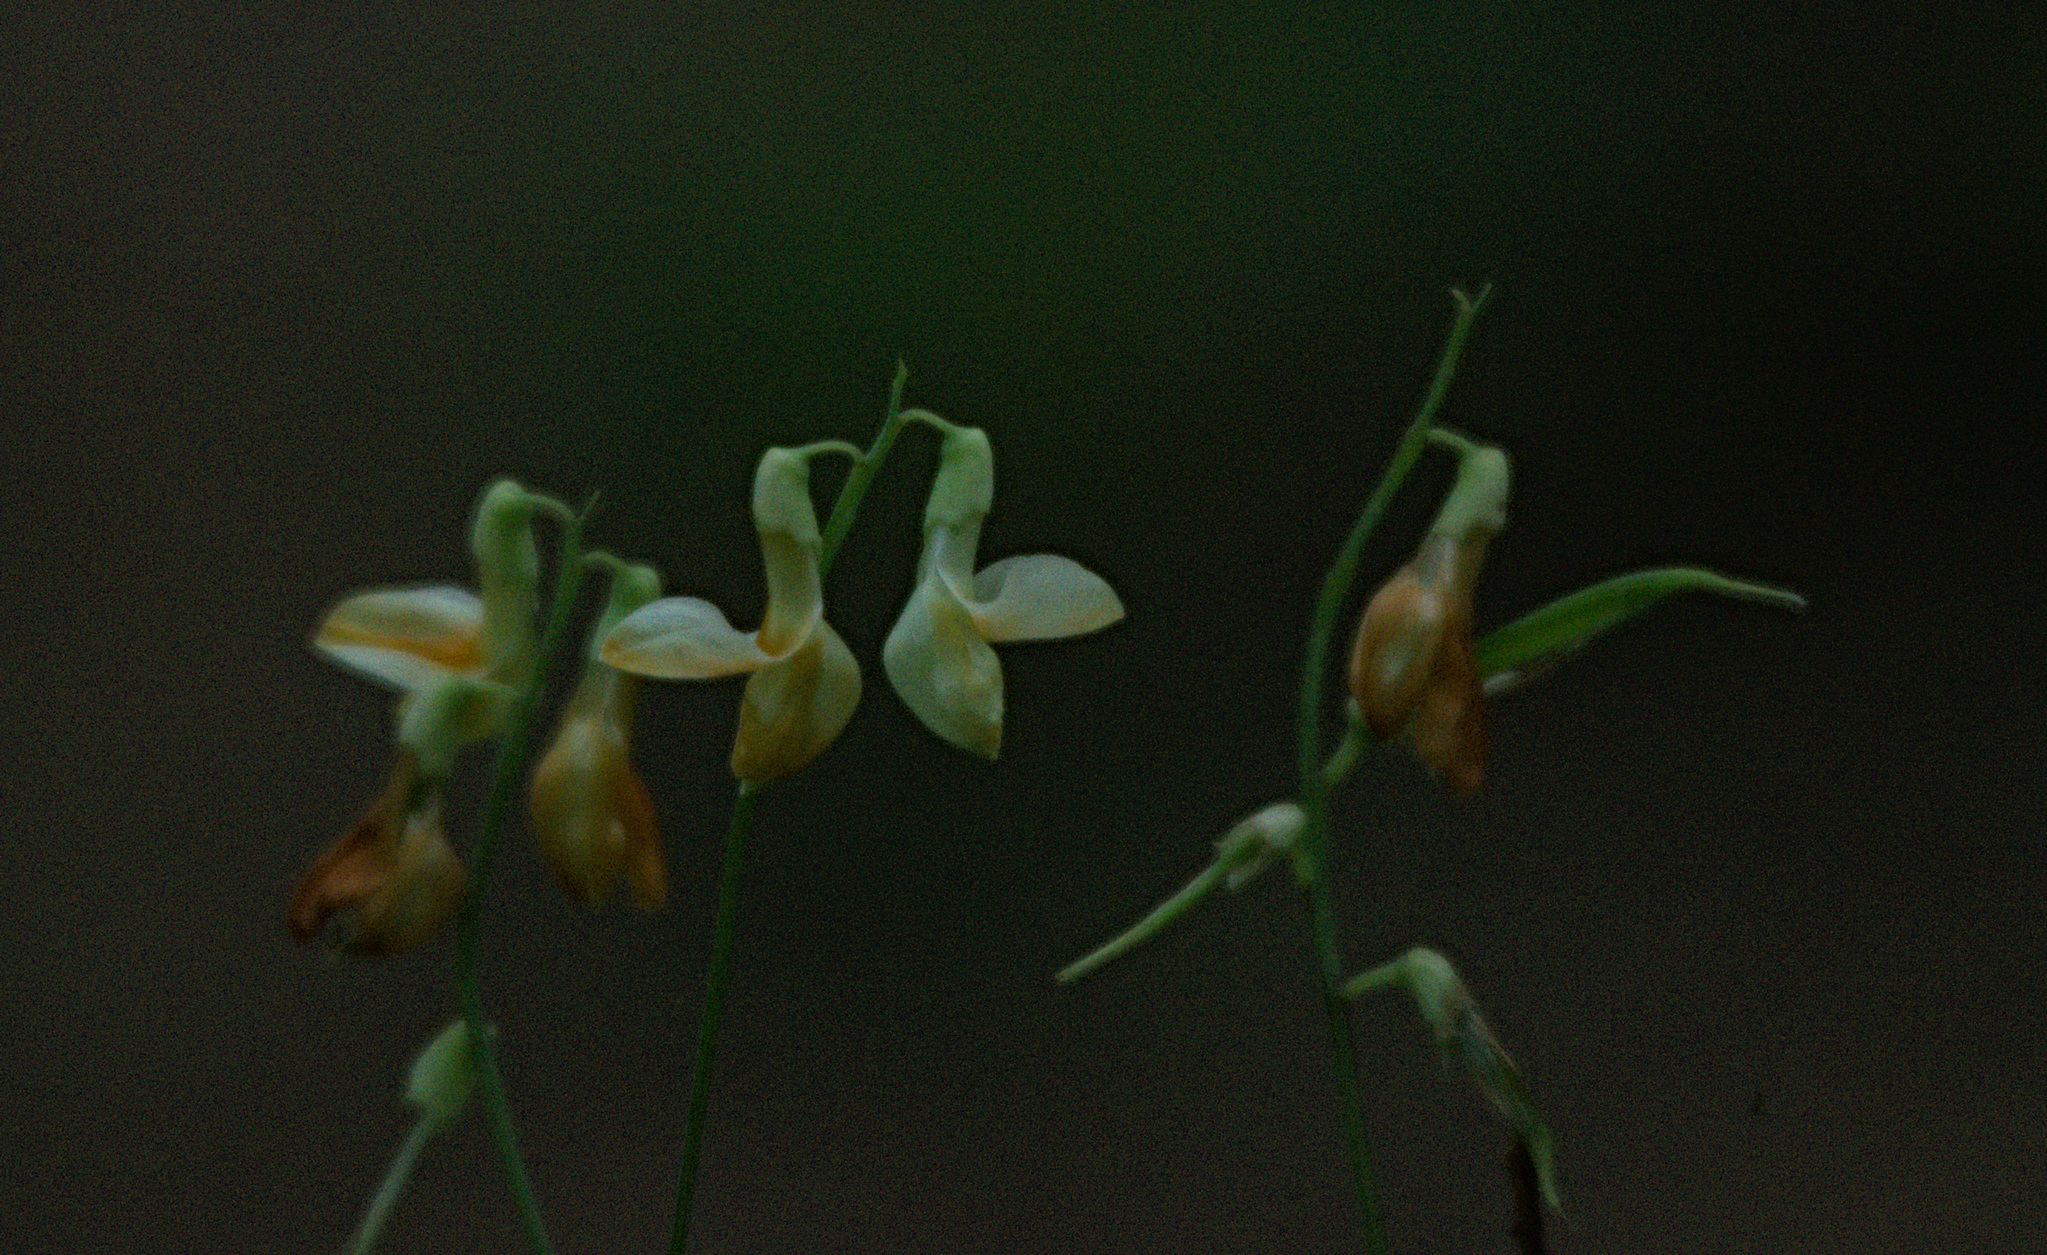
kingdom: Plantae
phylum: Tracheophyta
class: Magnoliopsida
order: Fabales
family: Fabaceae
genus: Lathyrus
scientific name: Lathyrus gmelinii
